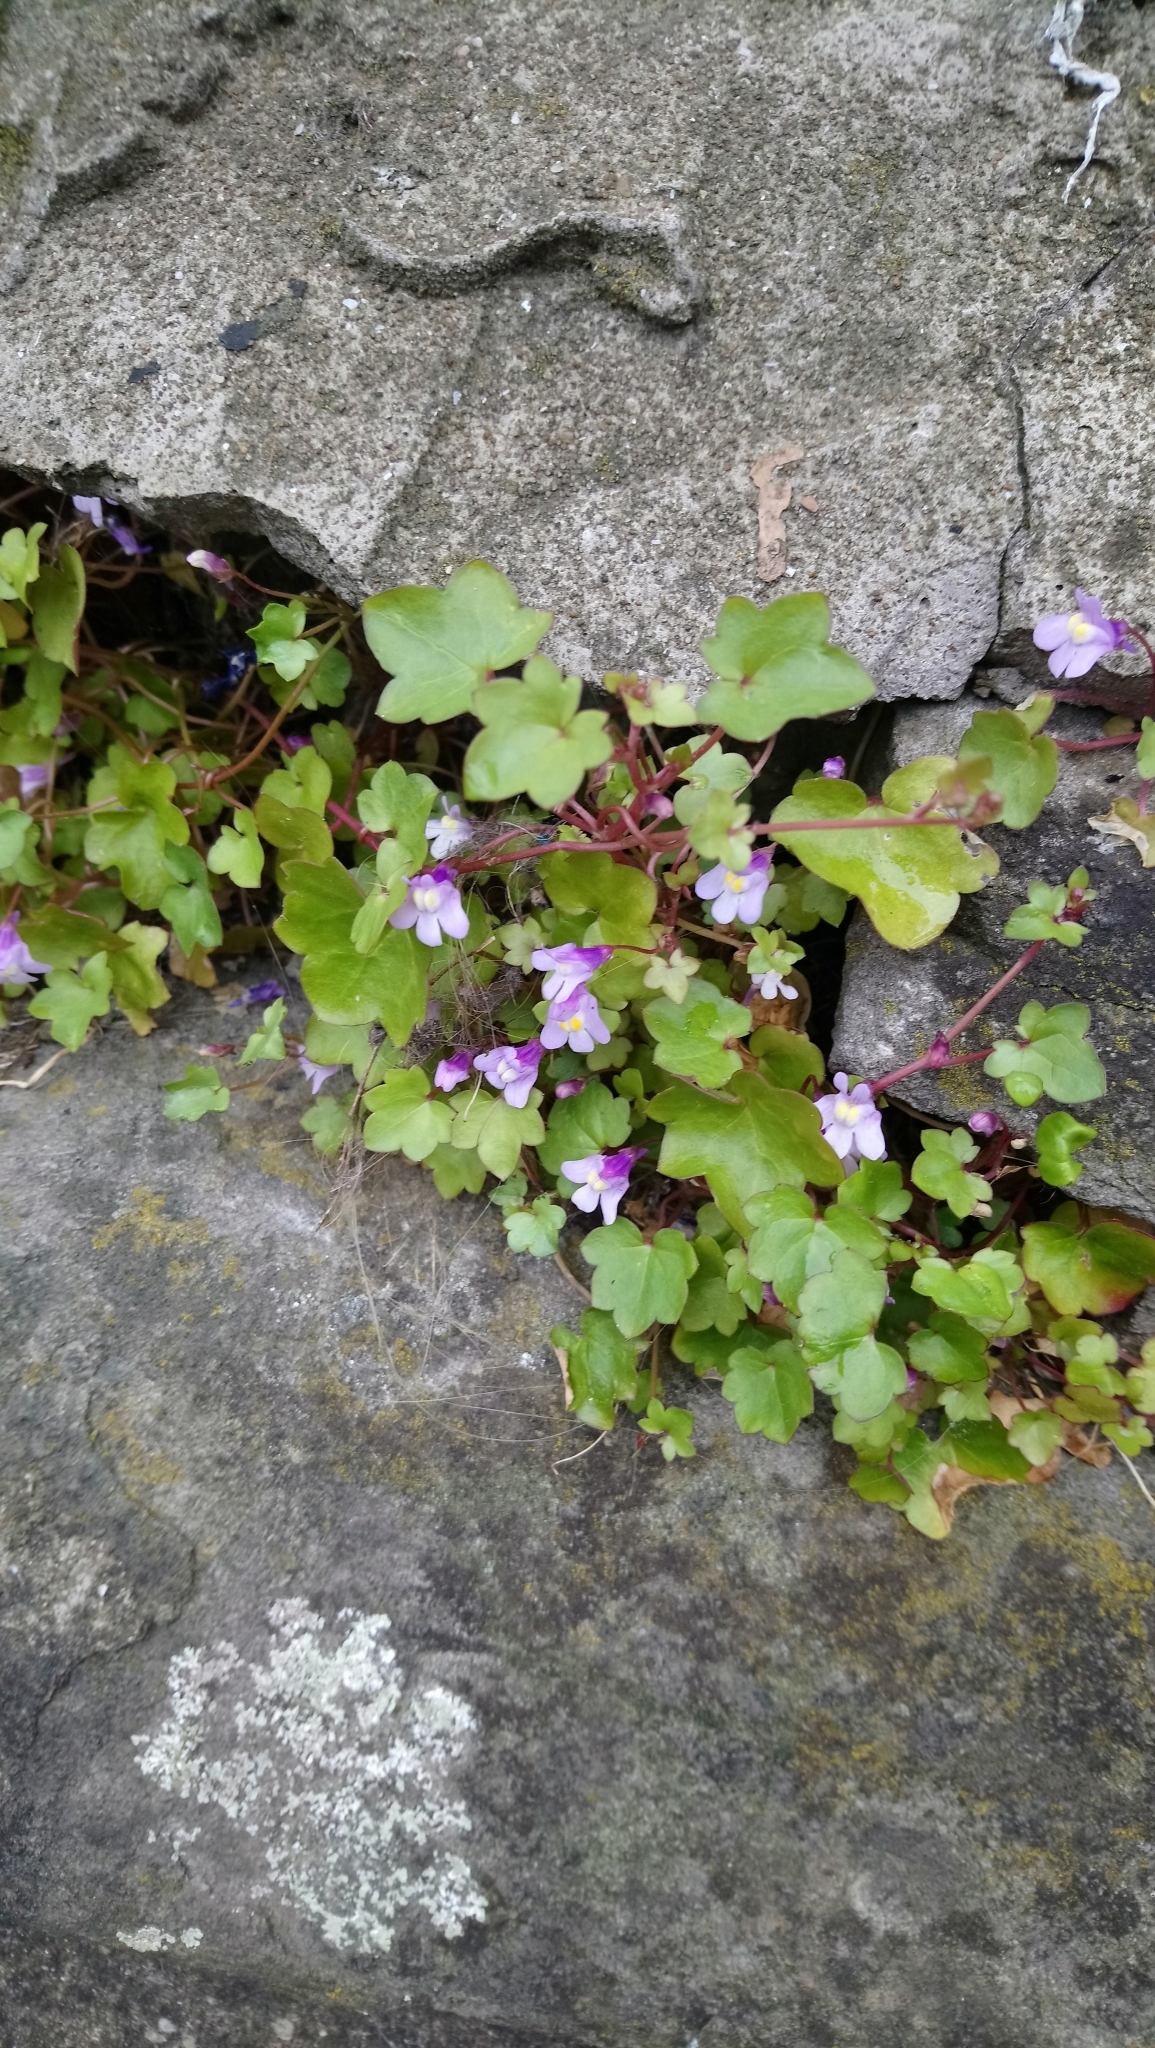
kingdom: Plantae
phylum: Tracheophyta
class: Magnoliopsida
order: Lamiales
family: Plantaginaceae
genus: Cymbalaria
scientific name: Cymbalaria muralis
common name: Ivy-leaved toadflax
